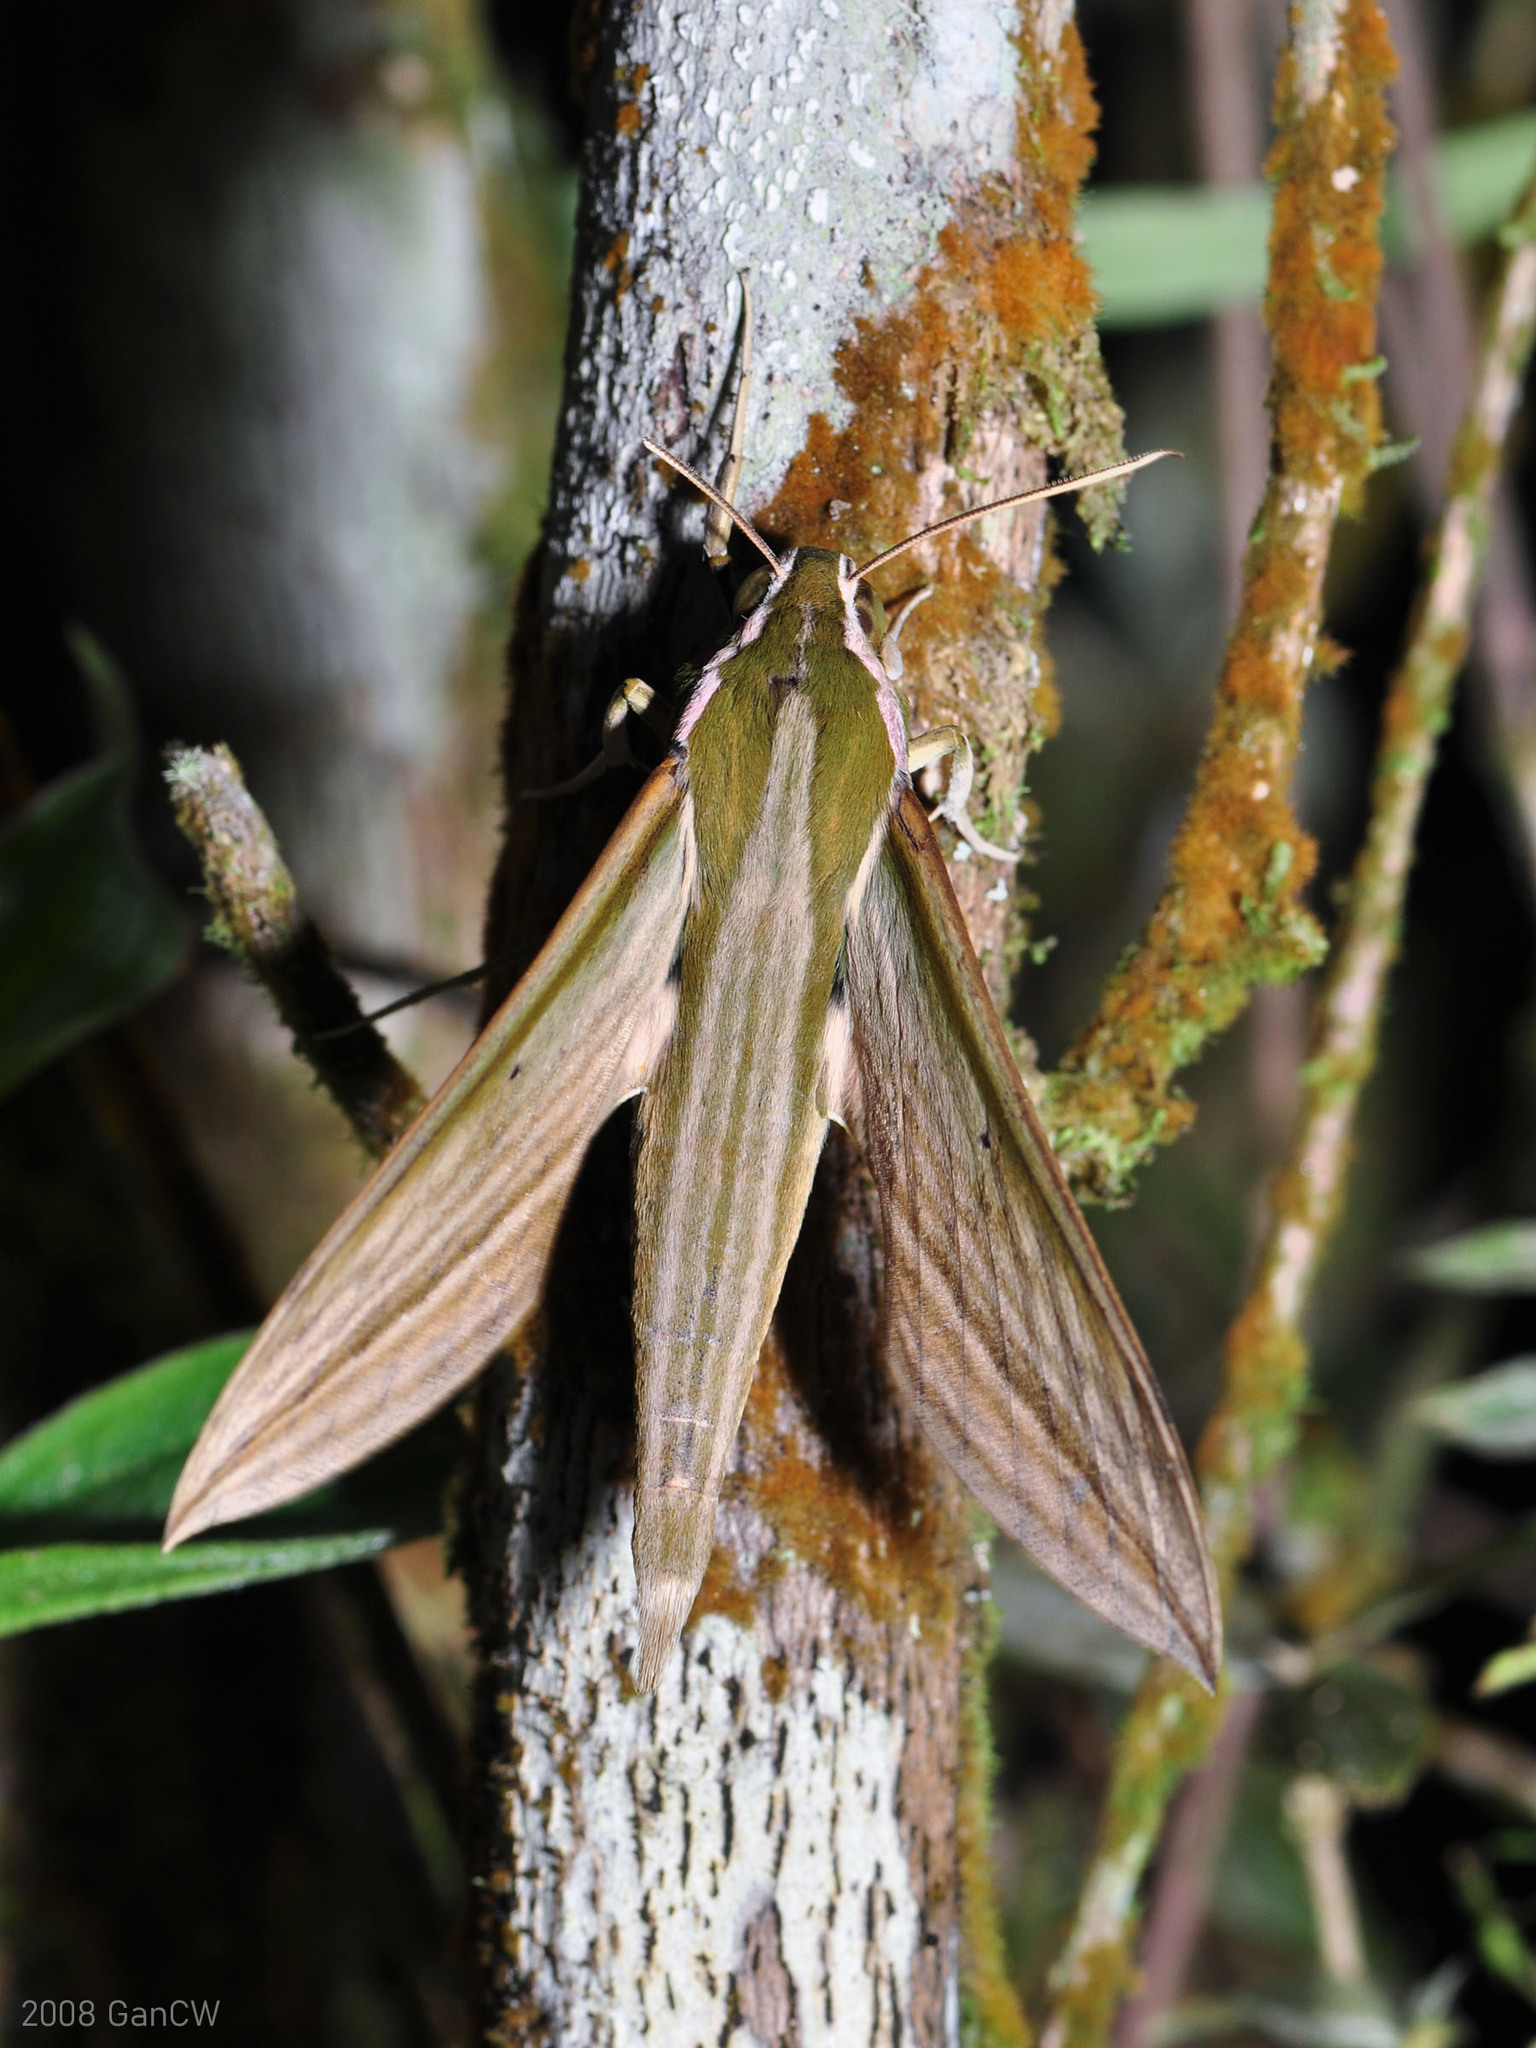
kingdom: Animalia
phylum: Arthropoda
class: Insecta
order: Lepidoptera
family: Sphingidae
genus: Cechetra
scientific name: Cechetra lineosa
